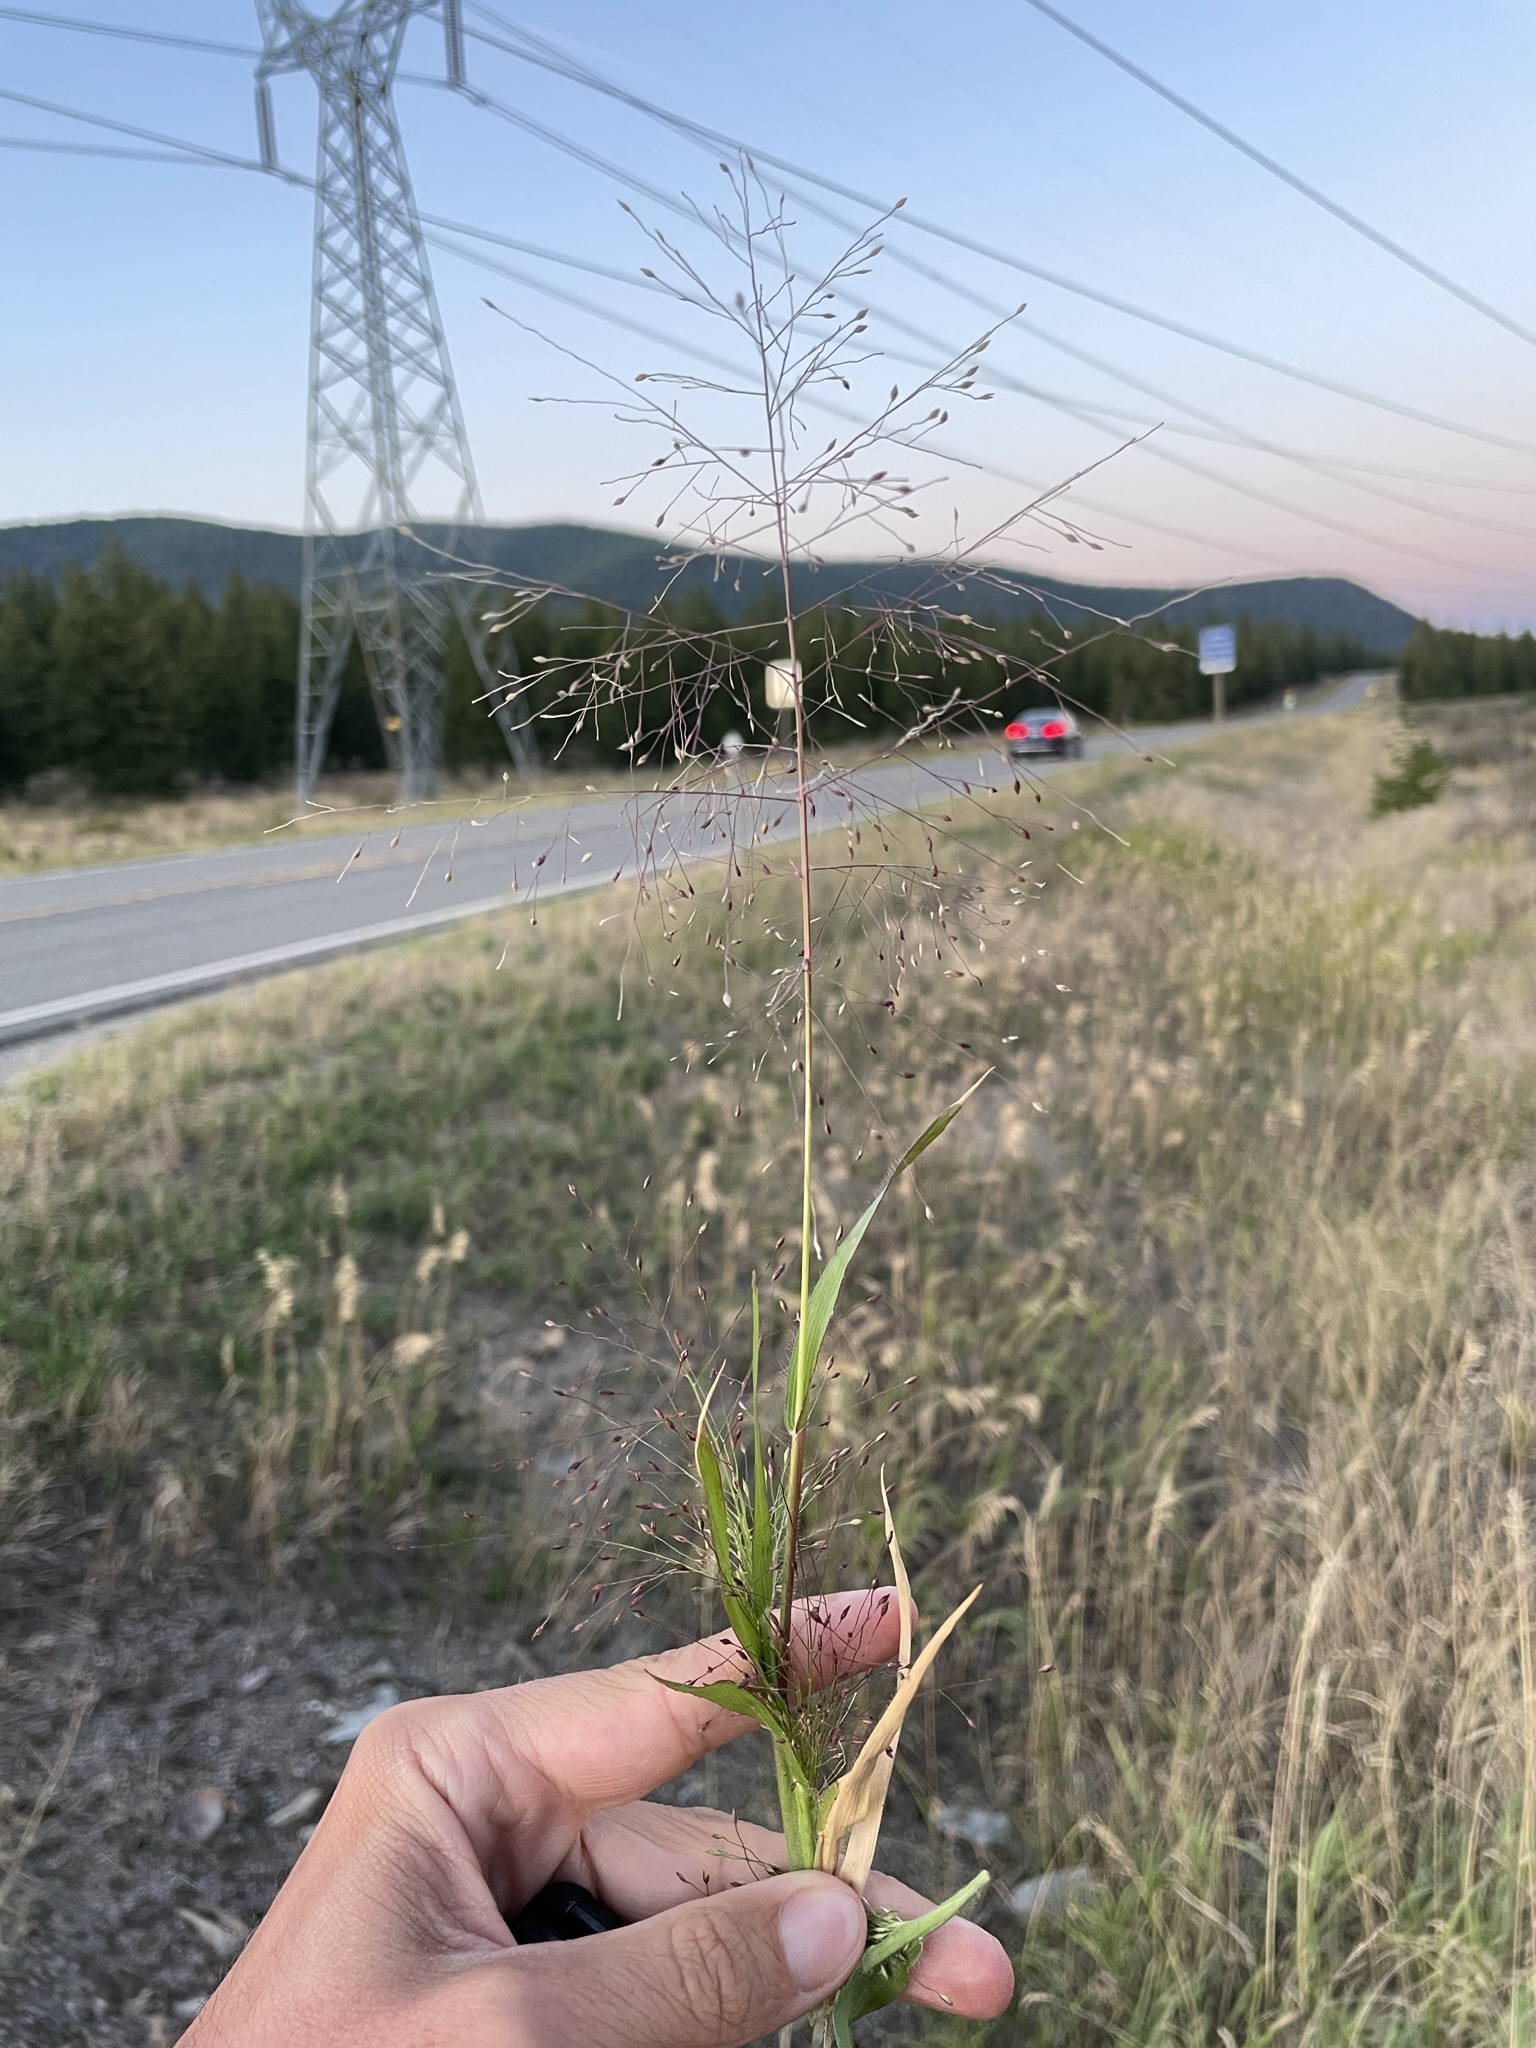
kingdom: Plantae
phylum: Tracheophyta
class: Liliopsida
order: Poales
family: Poaceae
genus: Panicum
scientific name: Panicum capillare
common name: Witch-grass
